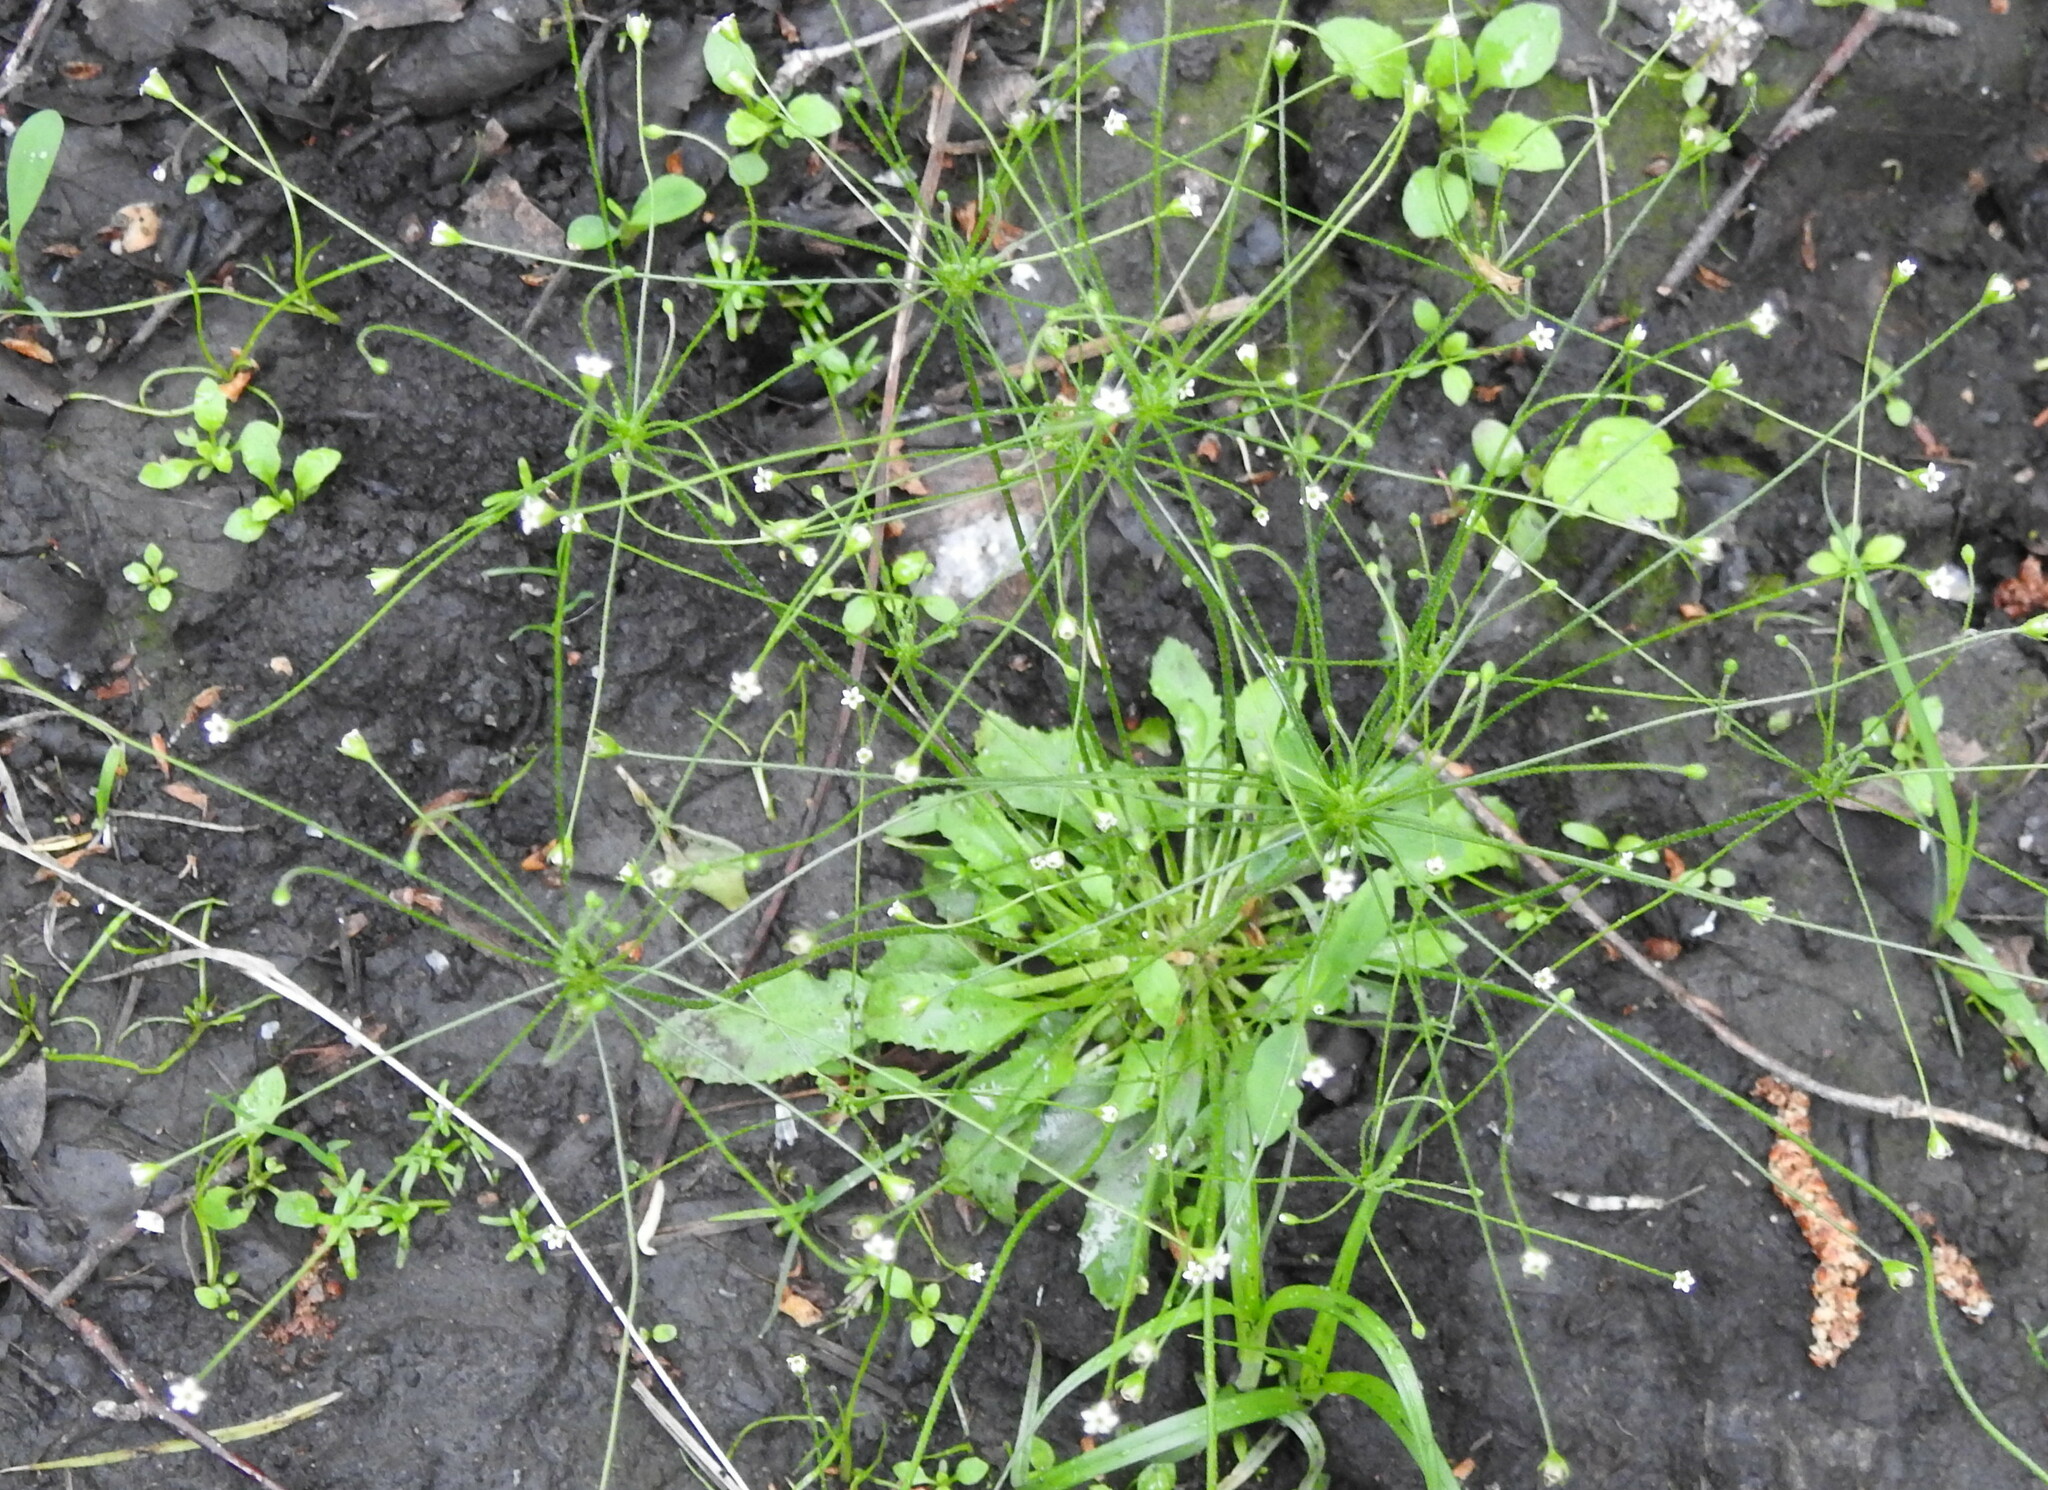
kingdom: Plantae
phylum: Tracheophyta
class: Magnoliopsida
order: Ericales
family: Primulaceae
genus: Androsace
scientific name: Androsace filiformis
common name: Filiform rock jasmine
